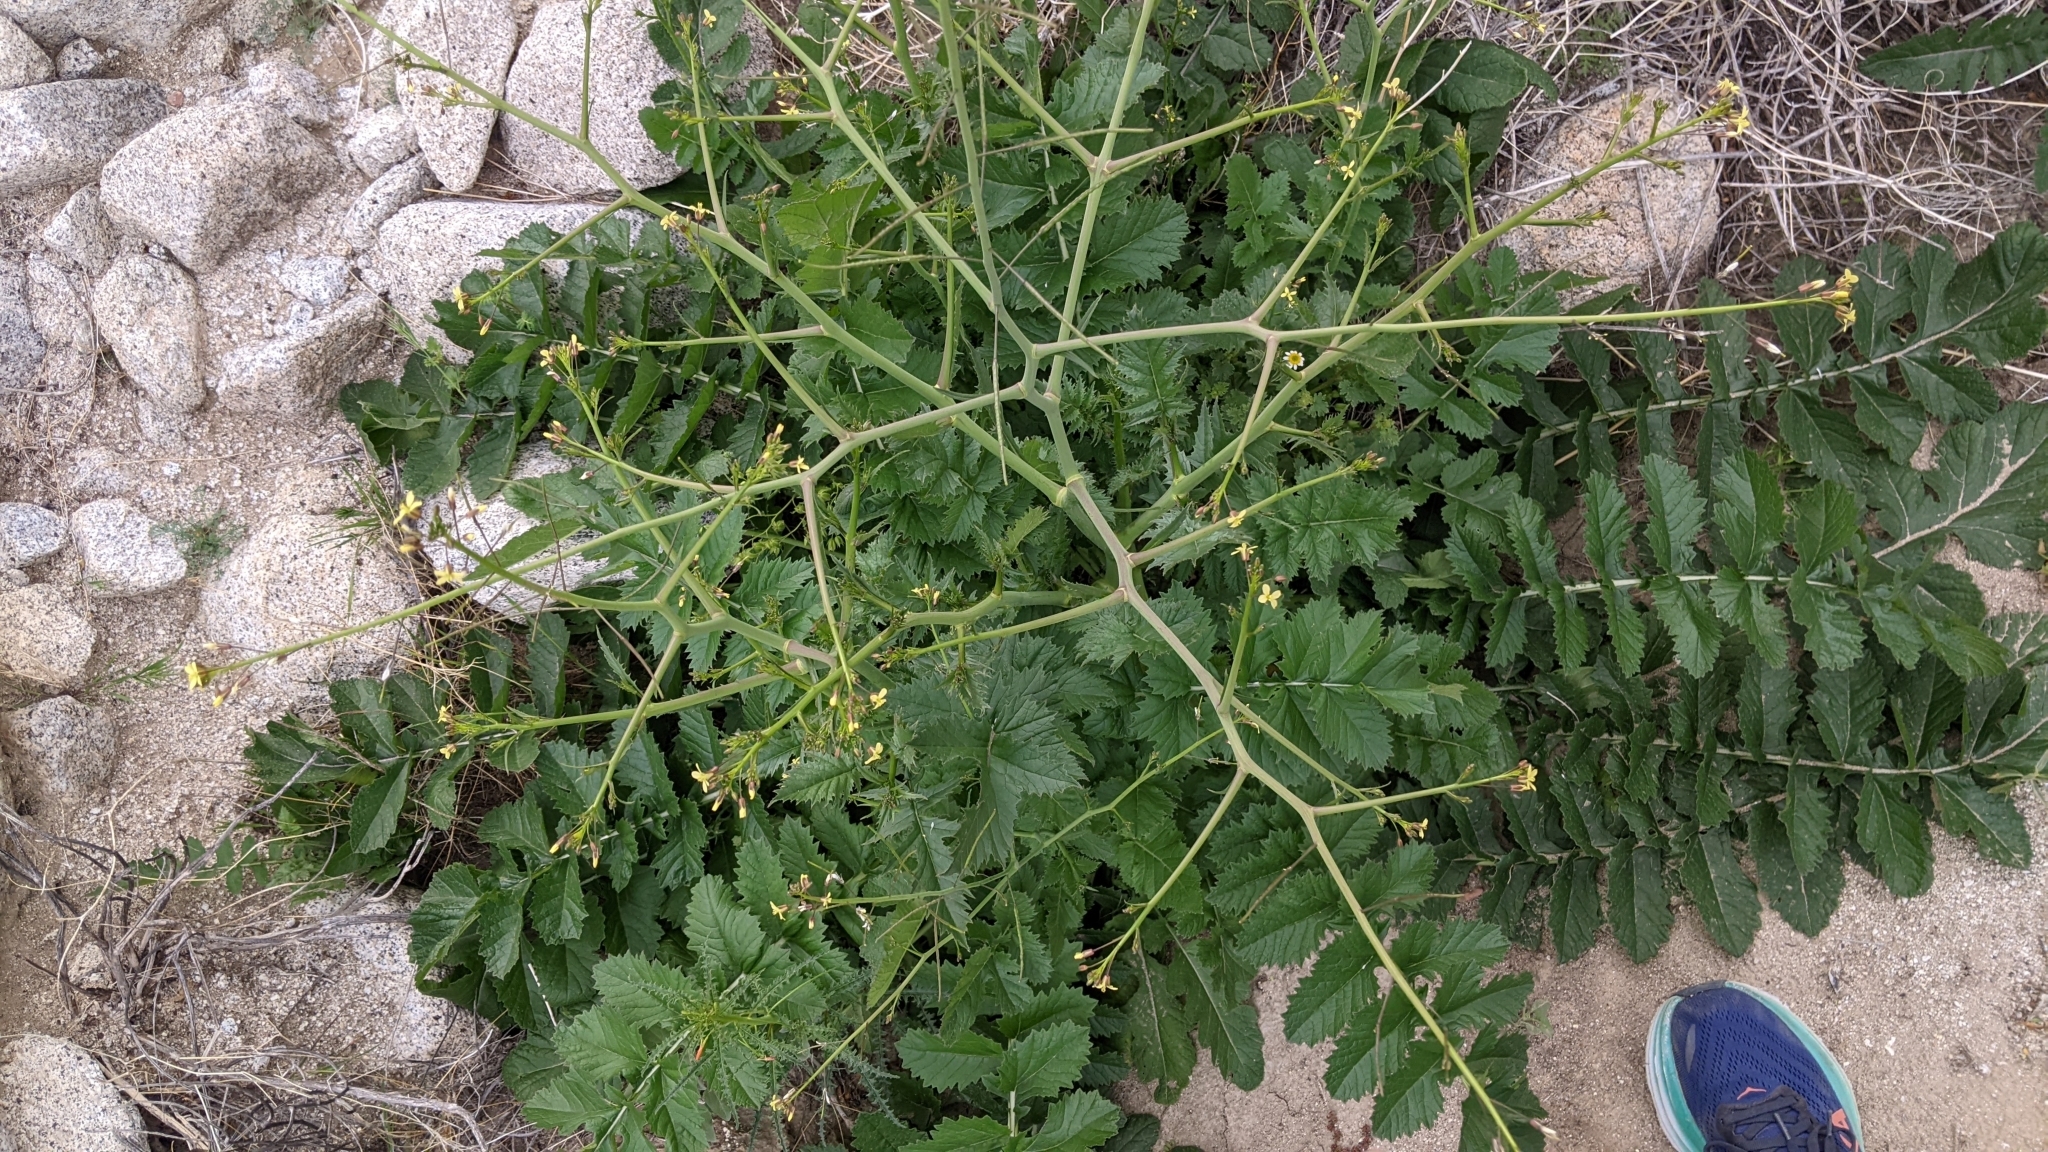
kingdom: Plantae
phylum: Tracheophyta
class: Magnoliopsida
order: Brassicales
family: Brassicaceae
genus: Brassica
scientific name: Brassica tournefortii
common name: Pale cabbage
